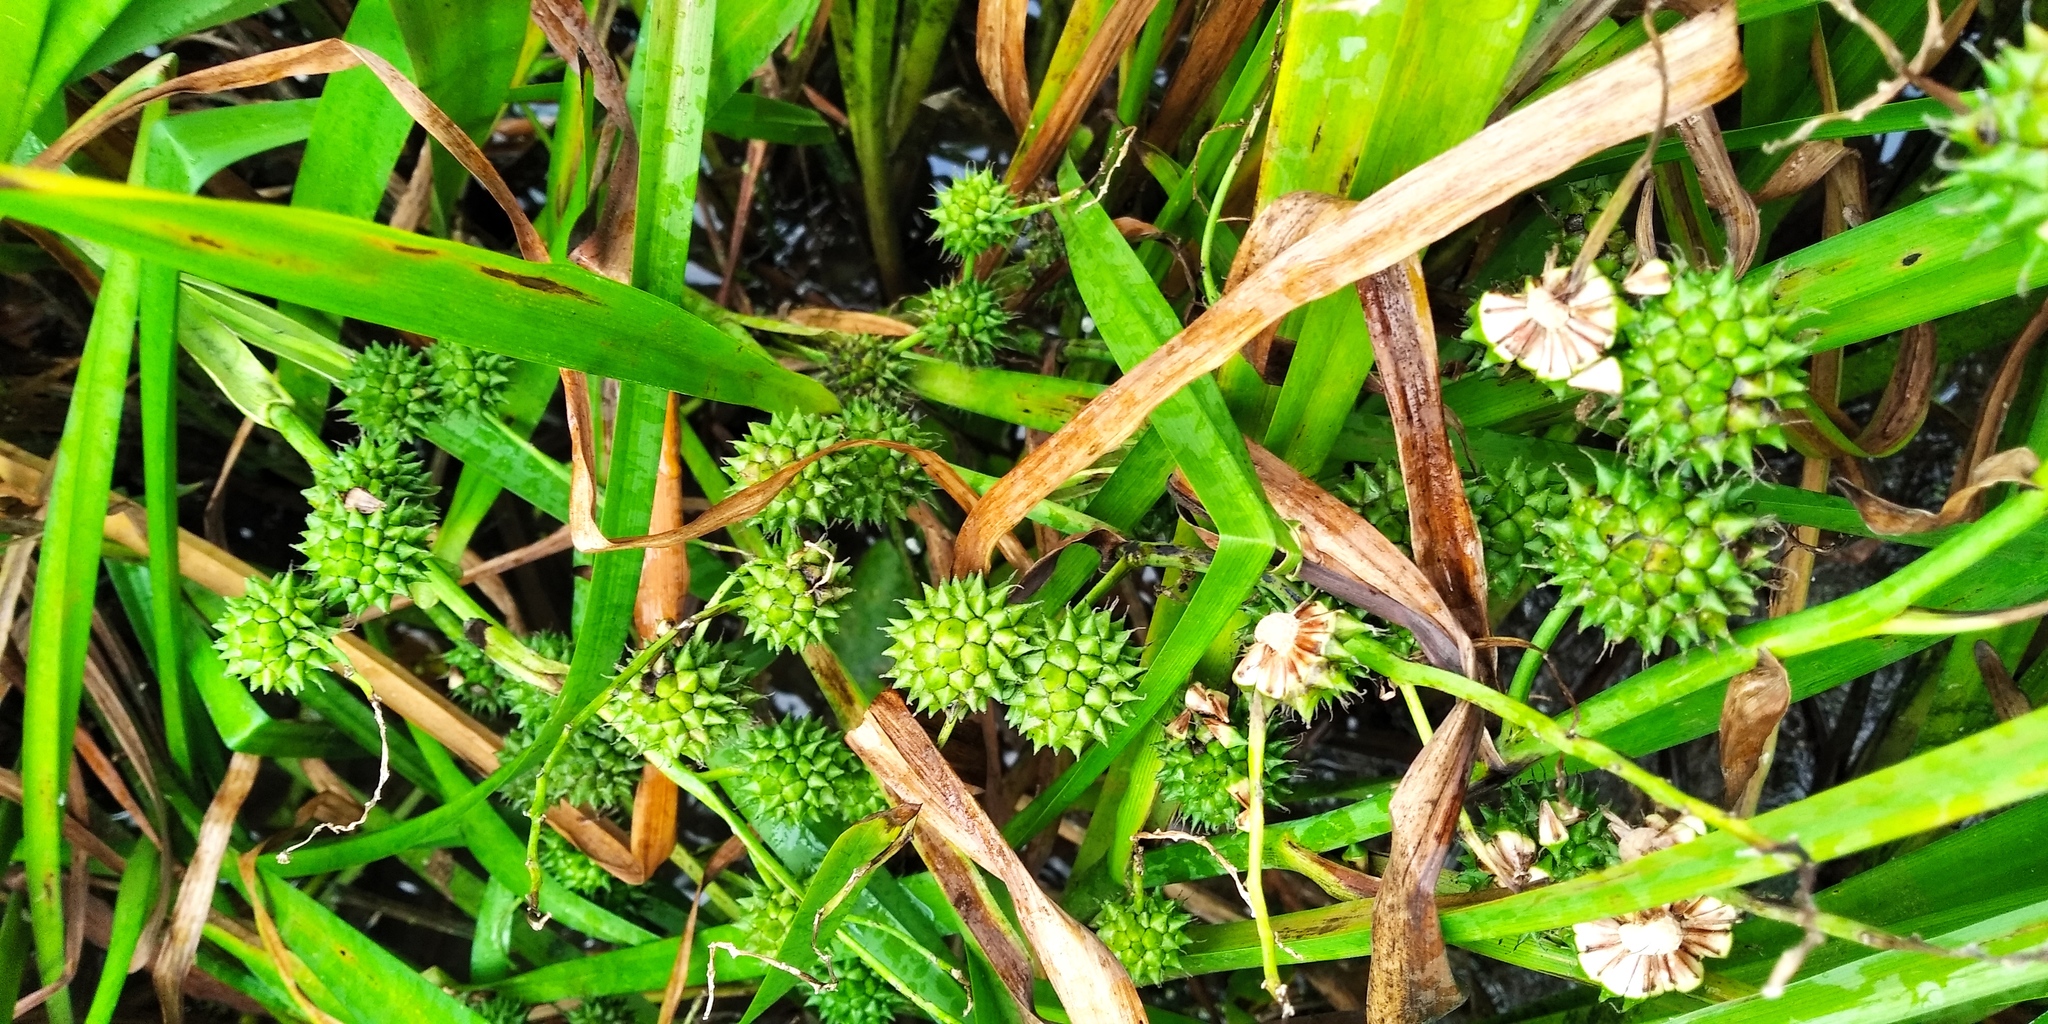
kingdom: Plantae
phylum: Tracheophyta
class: Liliopsida
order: Poales
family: Typhaceae
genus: Sparganium
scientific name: Sparganium erectum
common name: Branched bur-reed
